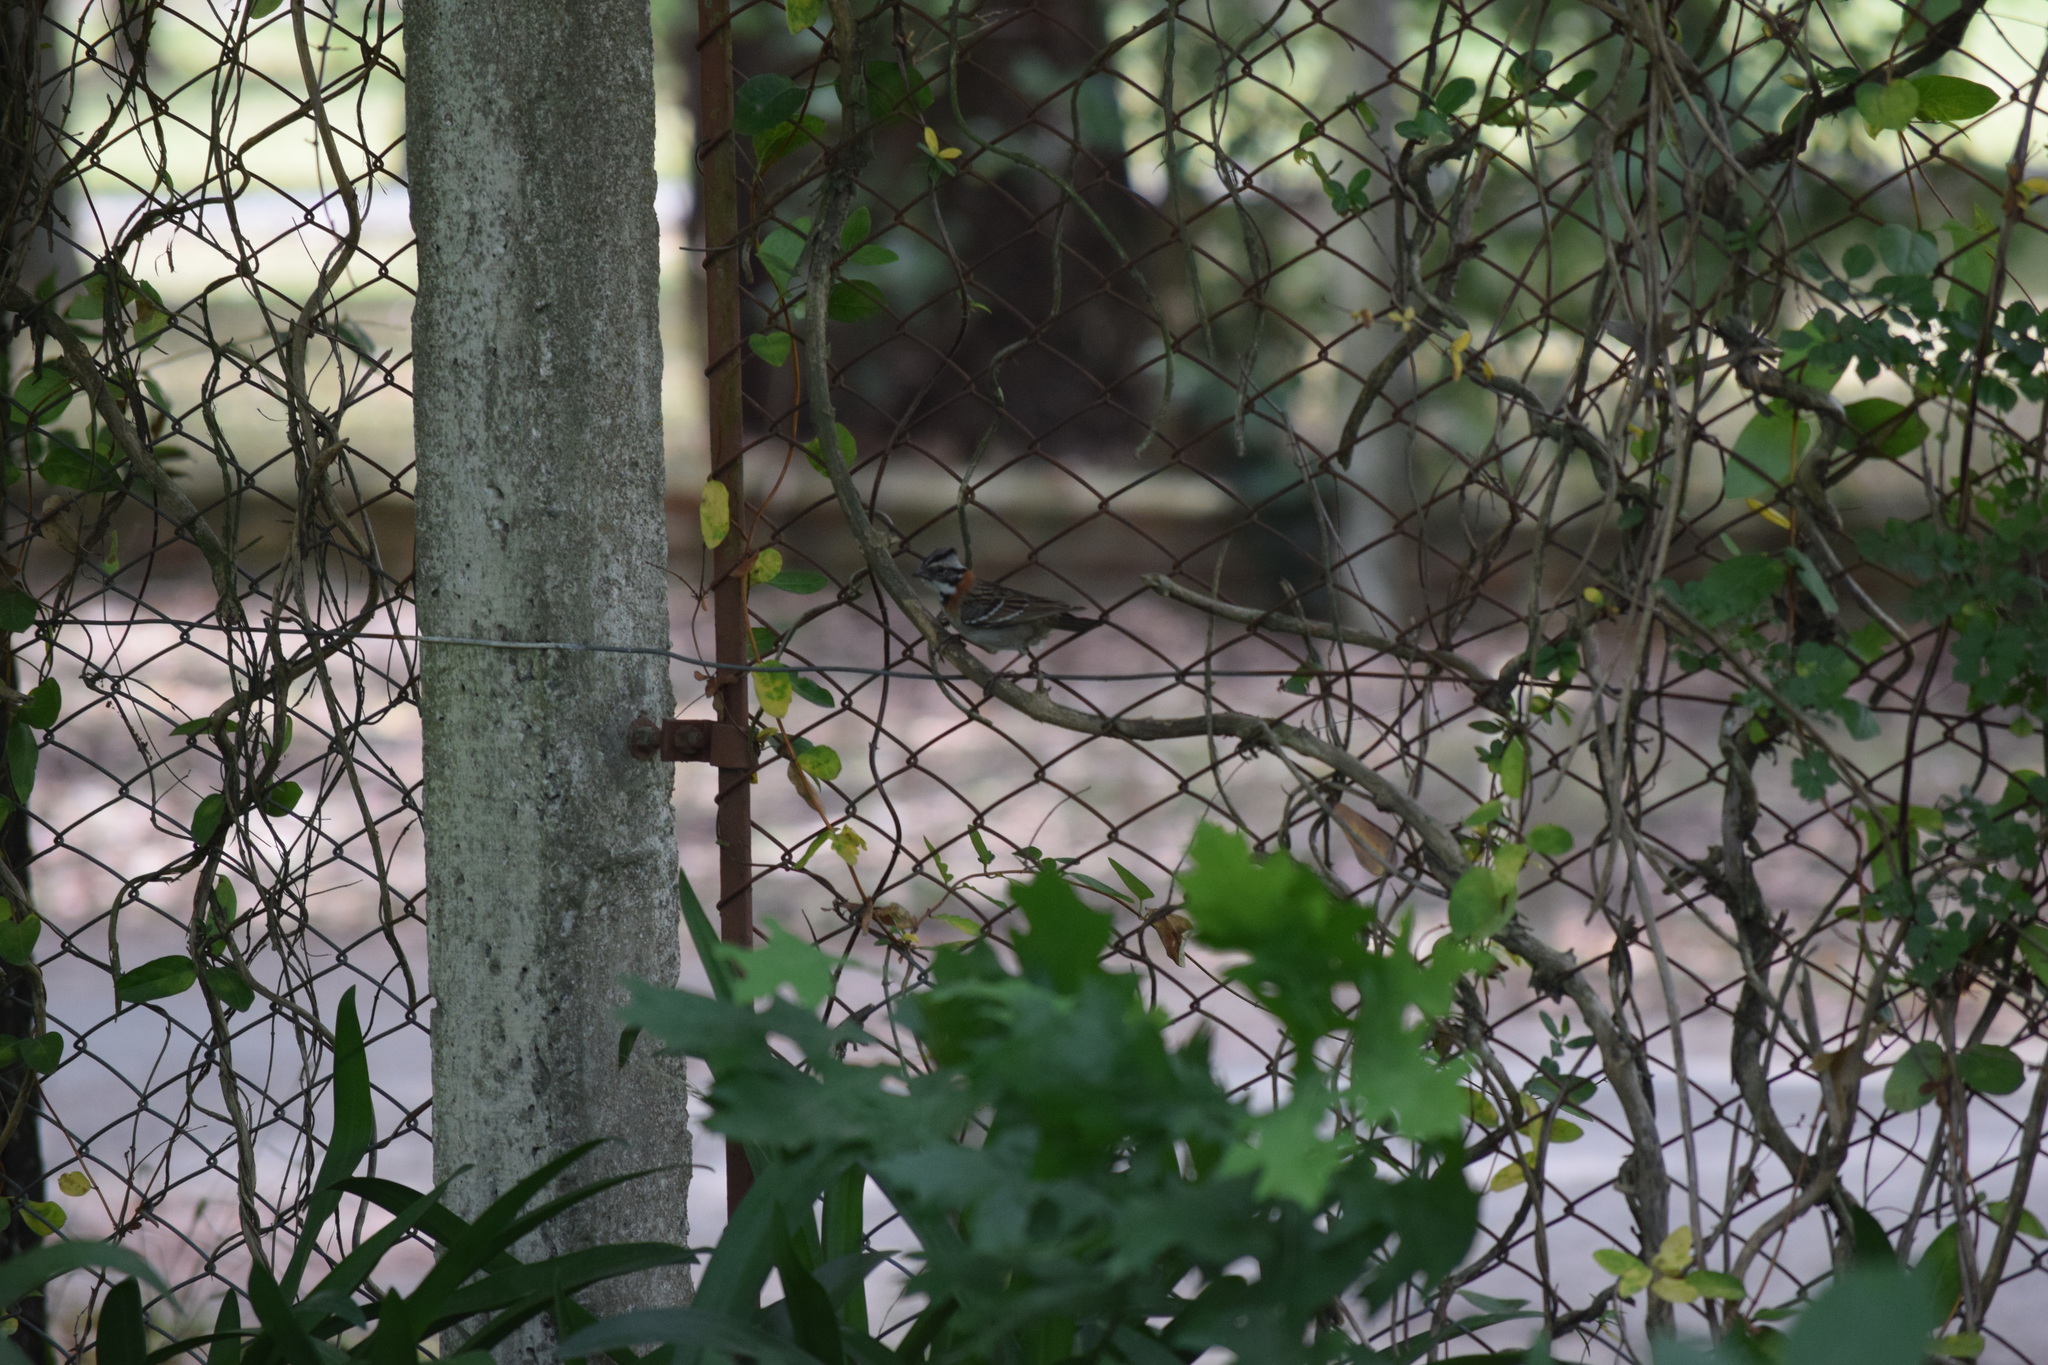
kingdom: Animalia
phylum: Chordata
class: Aves
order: Passeriformes
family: Passerellidae
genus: Zonotrichia
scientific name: Zonotrichia capensis
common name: Rufous-collared sparrow
